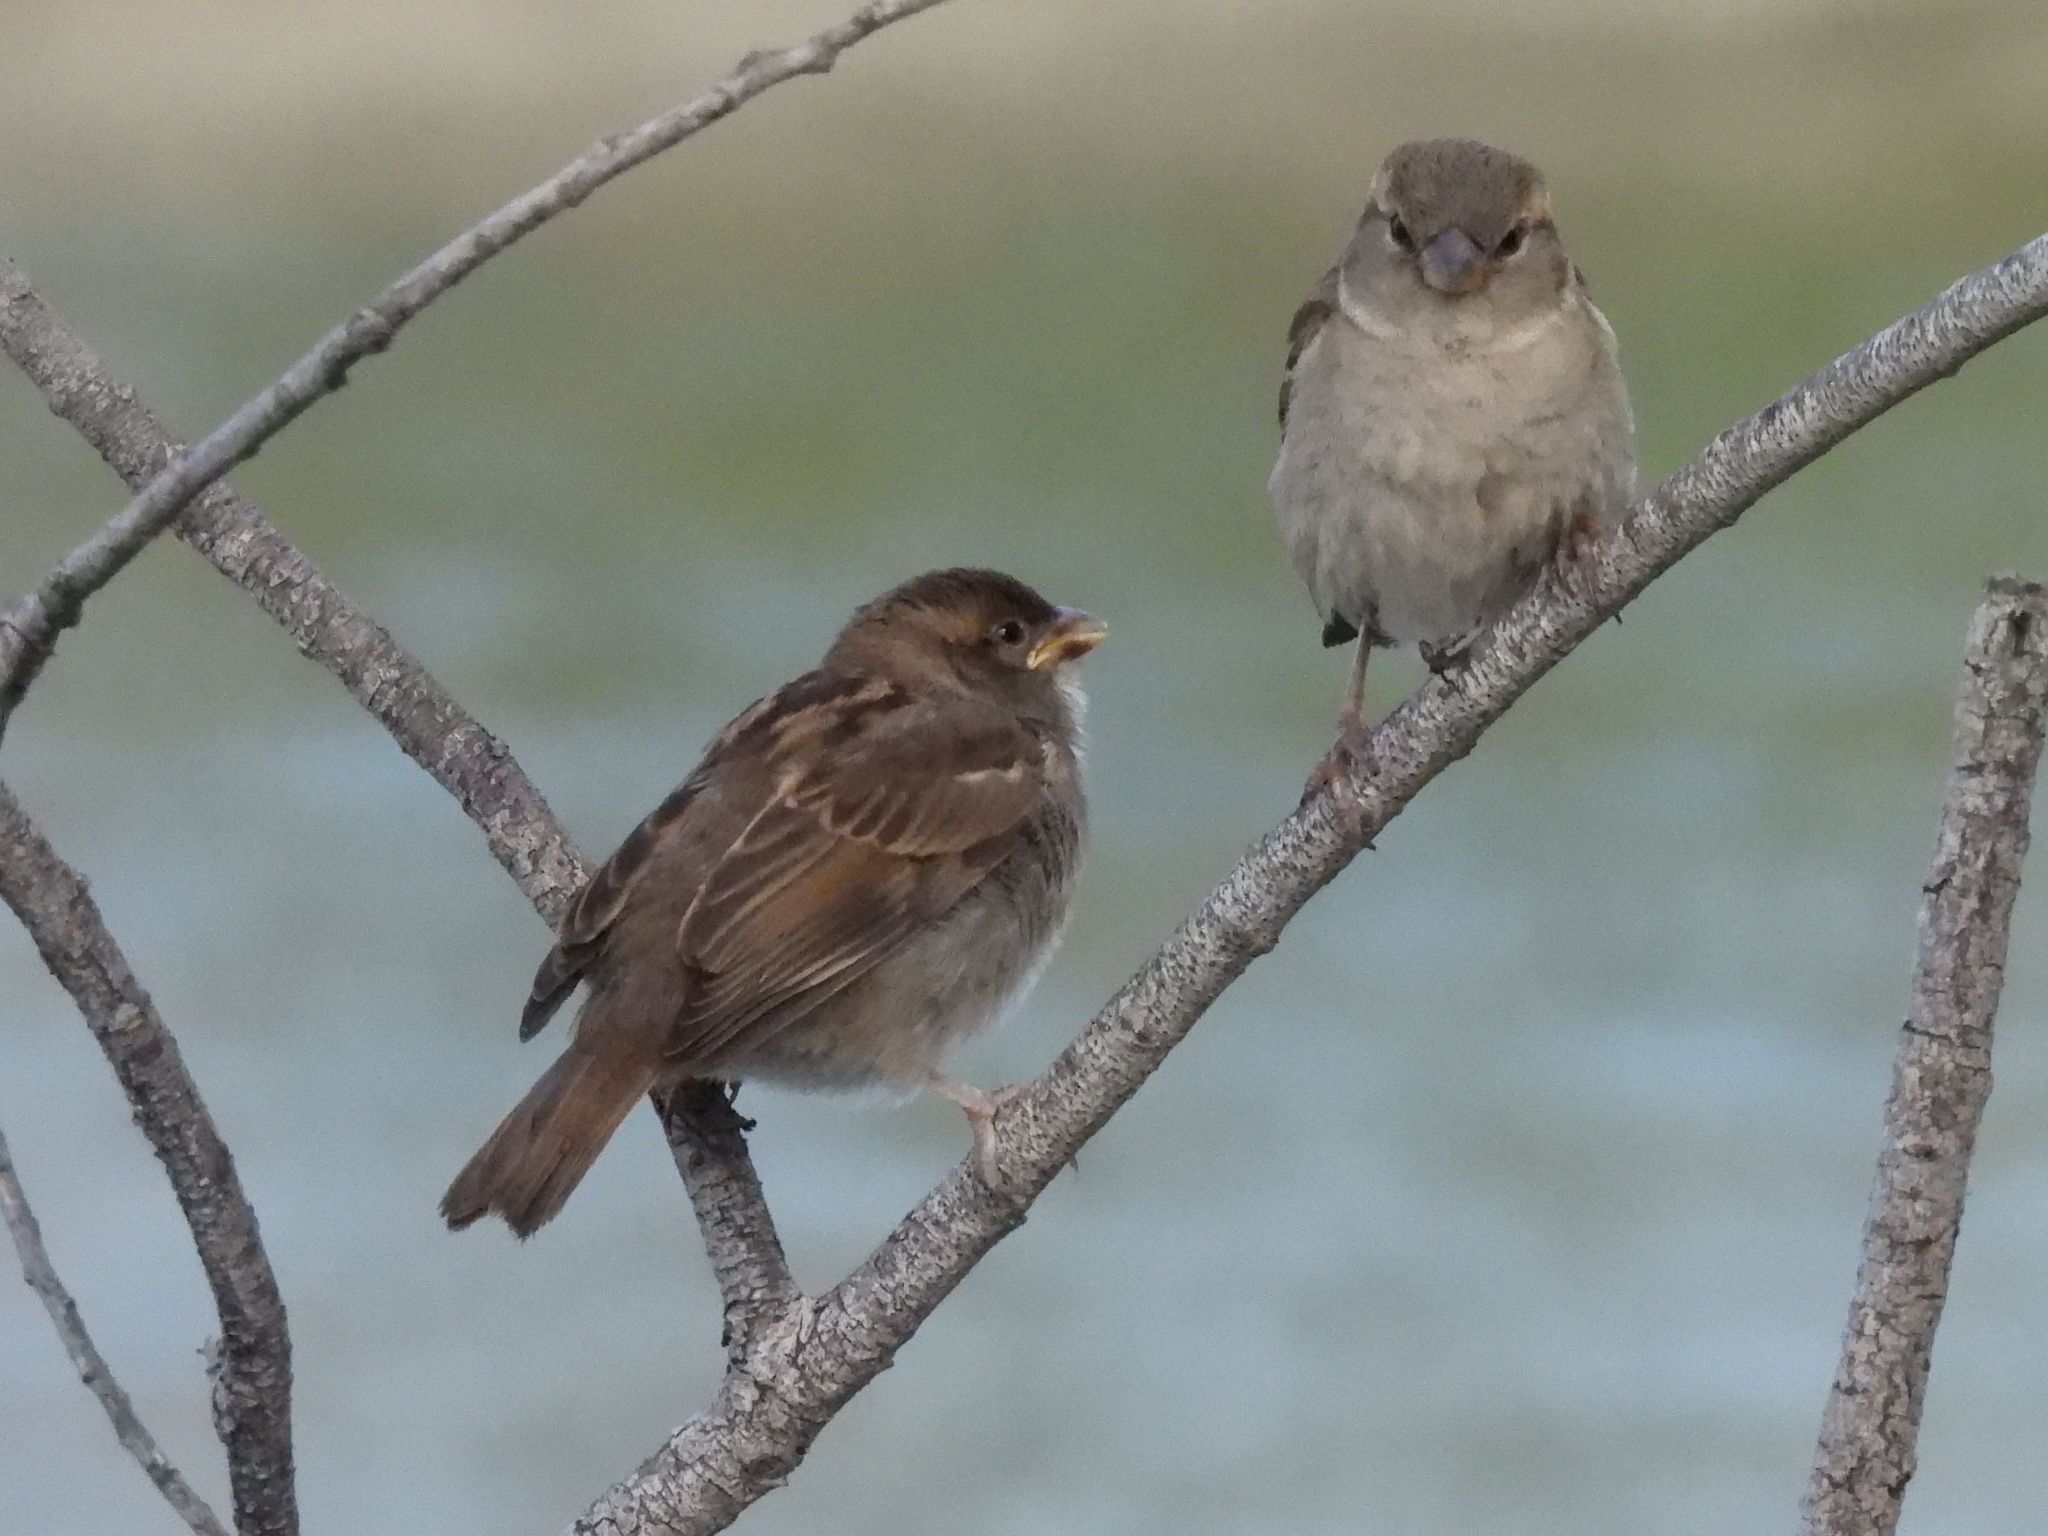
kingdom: Animalia
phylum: Chordata
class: Aves
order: Passeriformes
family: Passeridae
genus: Passer
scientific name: Passer domesticus
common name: House sparrow
